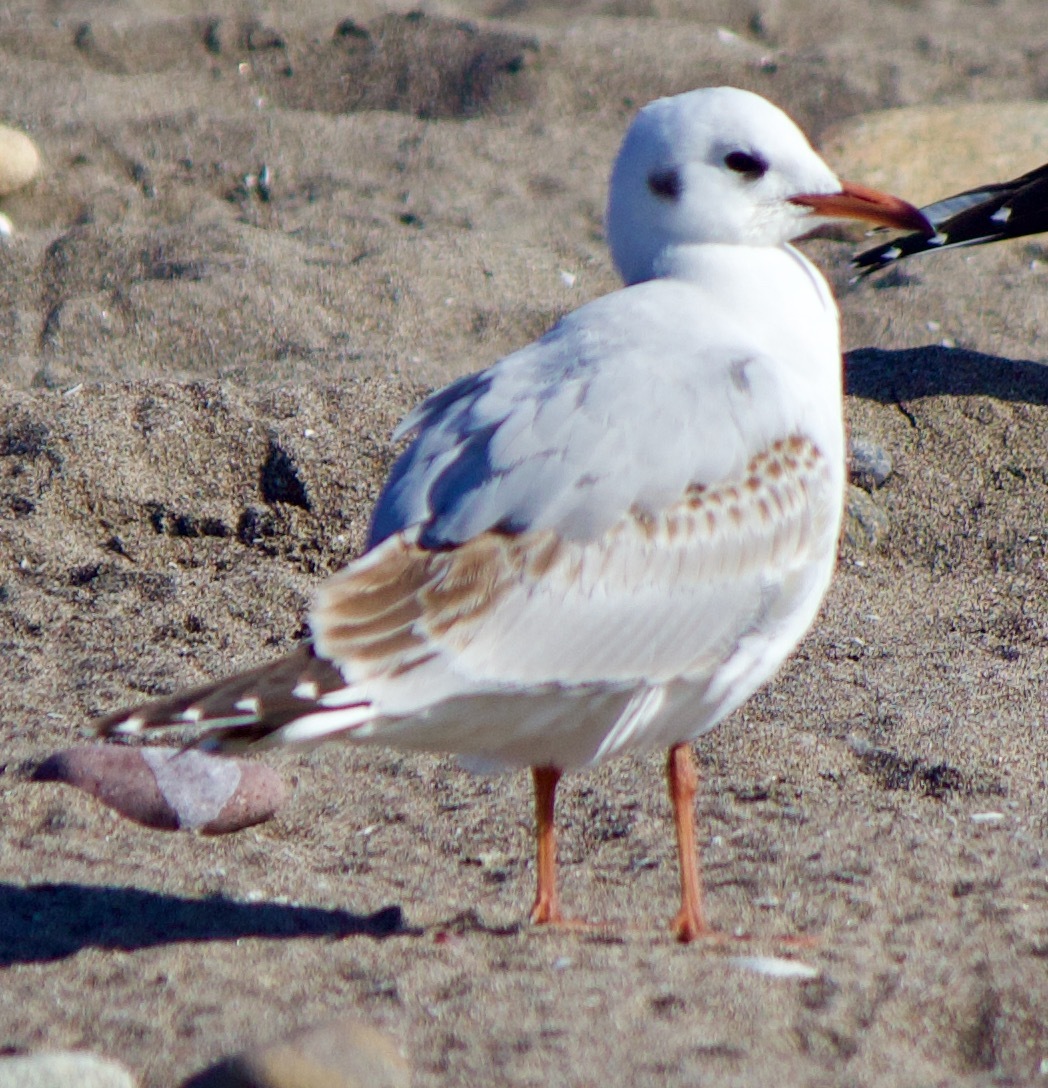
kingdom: Animalia
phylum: Chordata
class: Aves
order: Charadriiformes
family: Laridae
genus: Chroicocephalus
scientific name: Chroicocephalus maculipennis
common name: Brown-hooded gull
